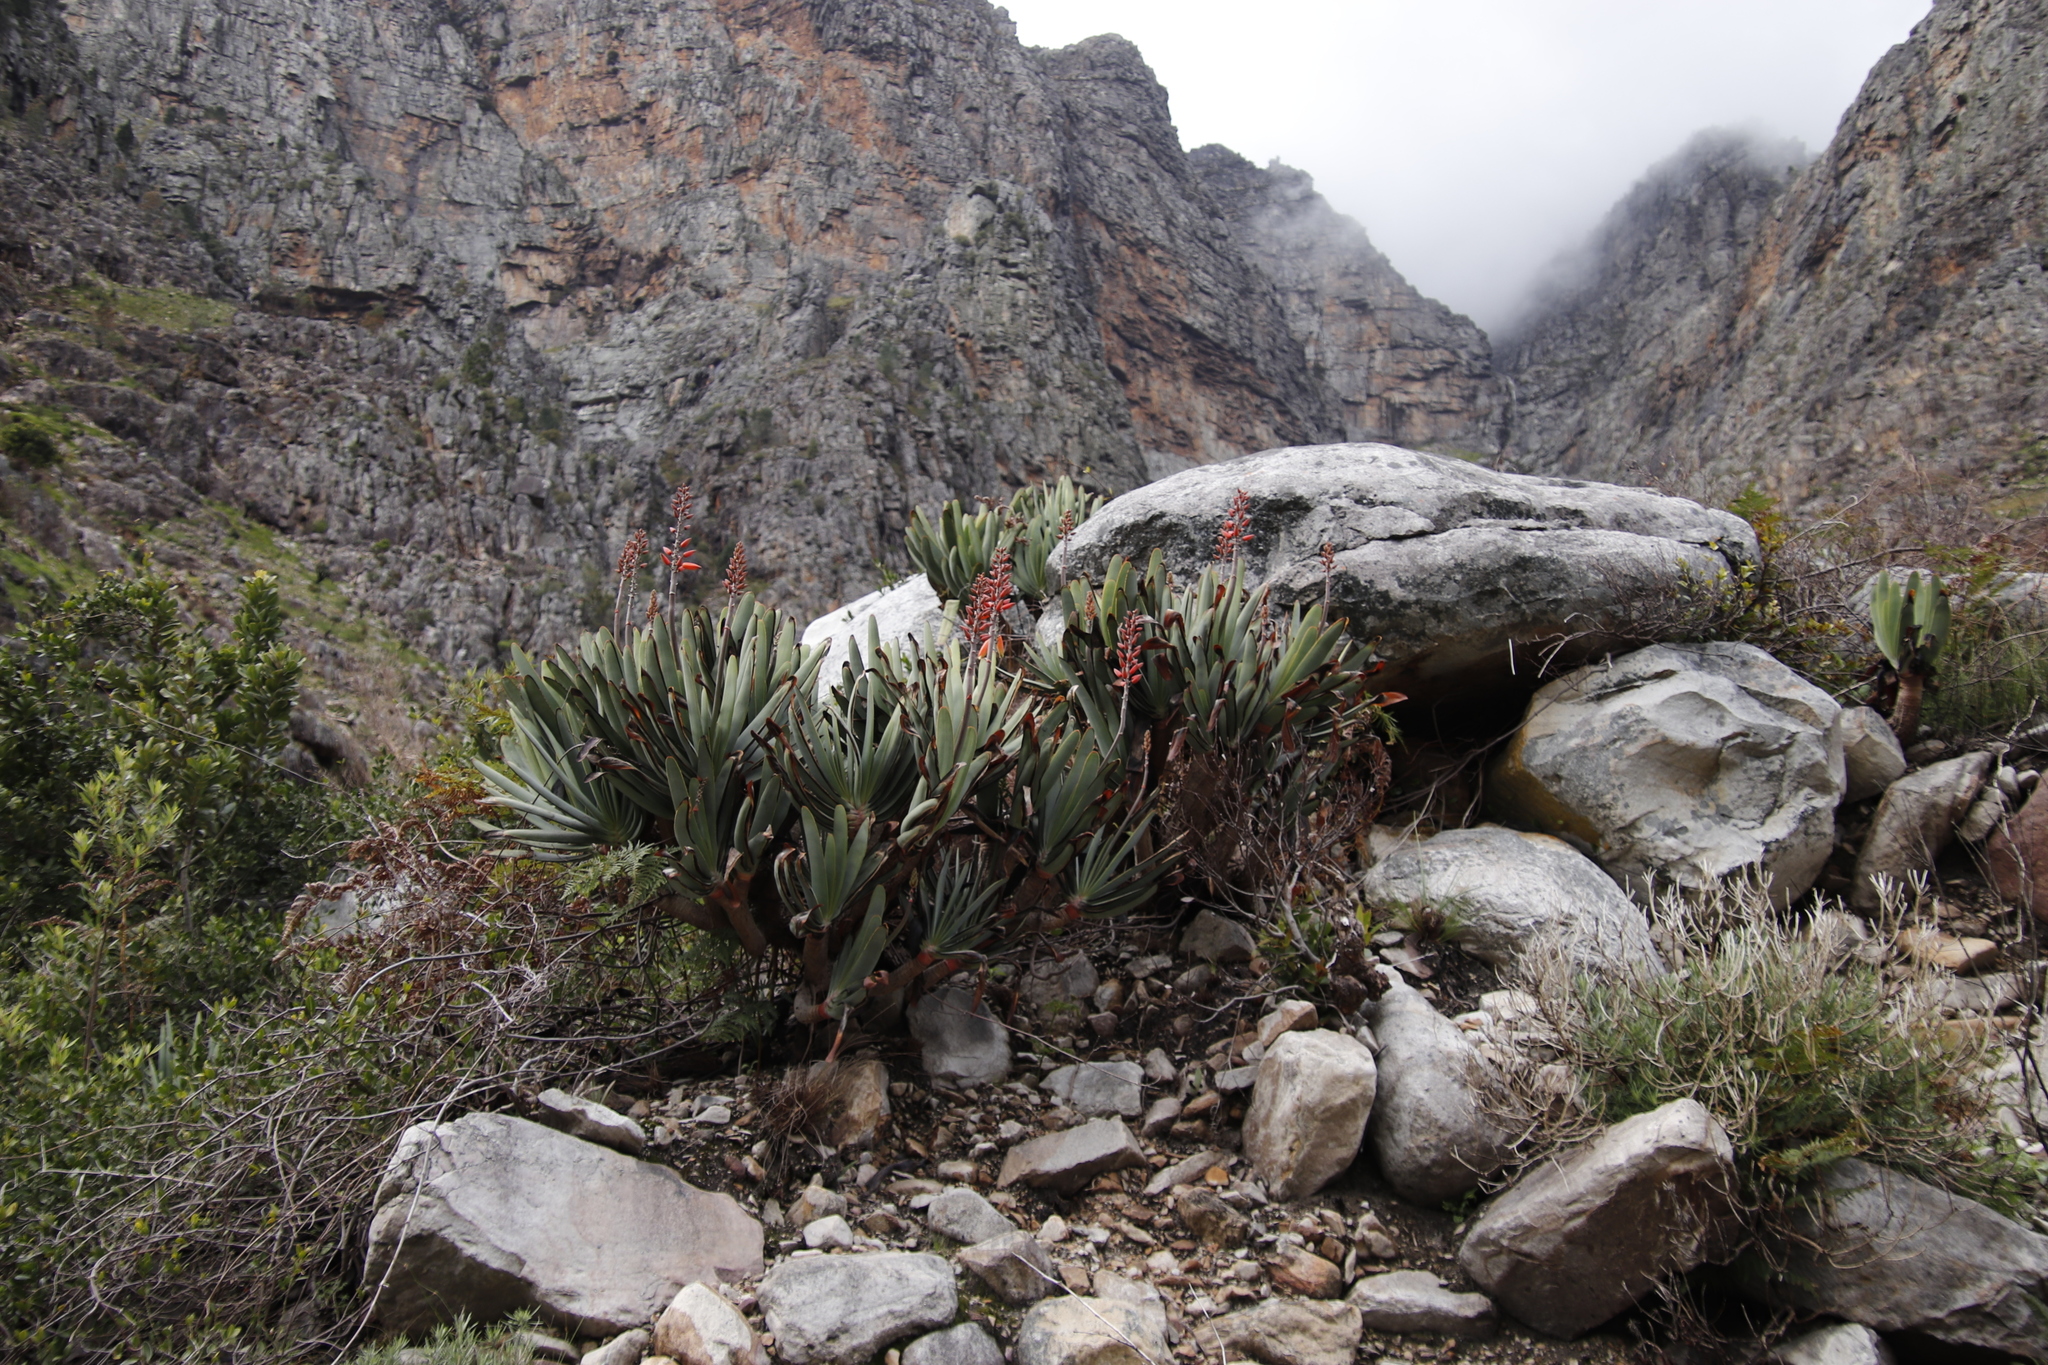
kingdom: Plantae
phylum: Tracheophyta
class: Liliopsida
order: Asparagales
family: Asphodelaceae
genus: Kumara
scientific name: Kumara plicatilis
